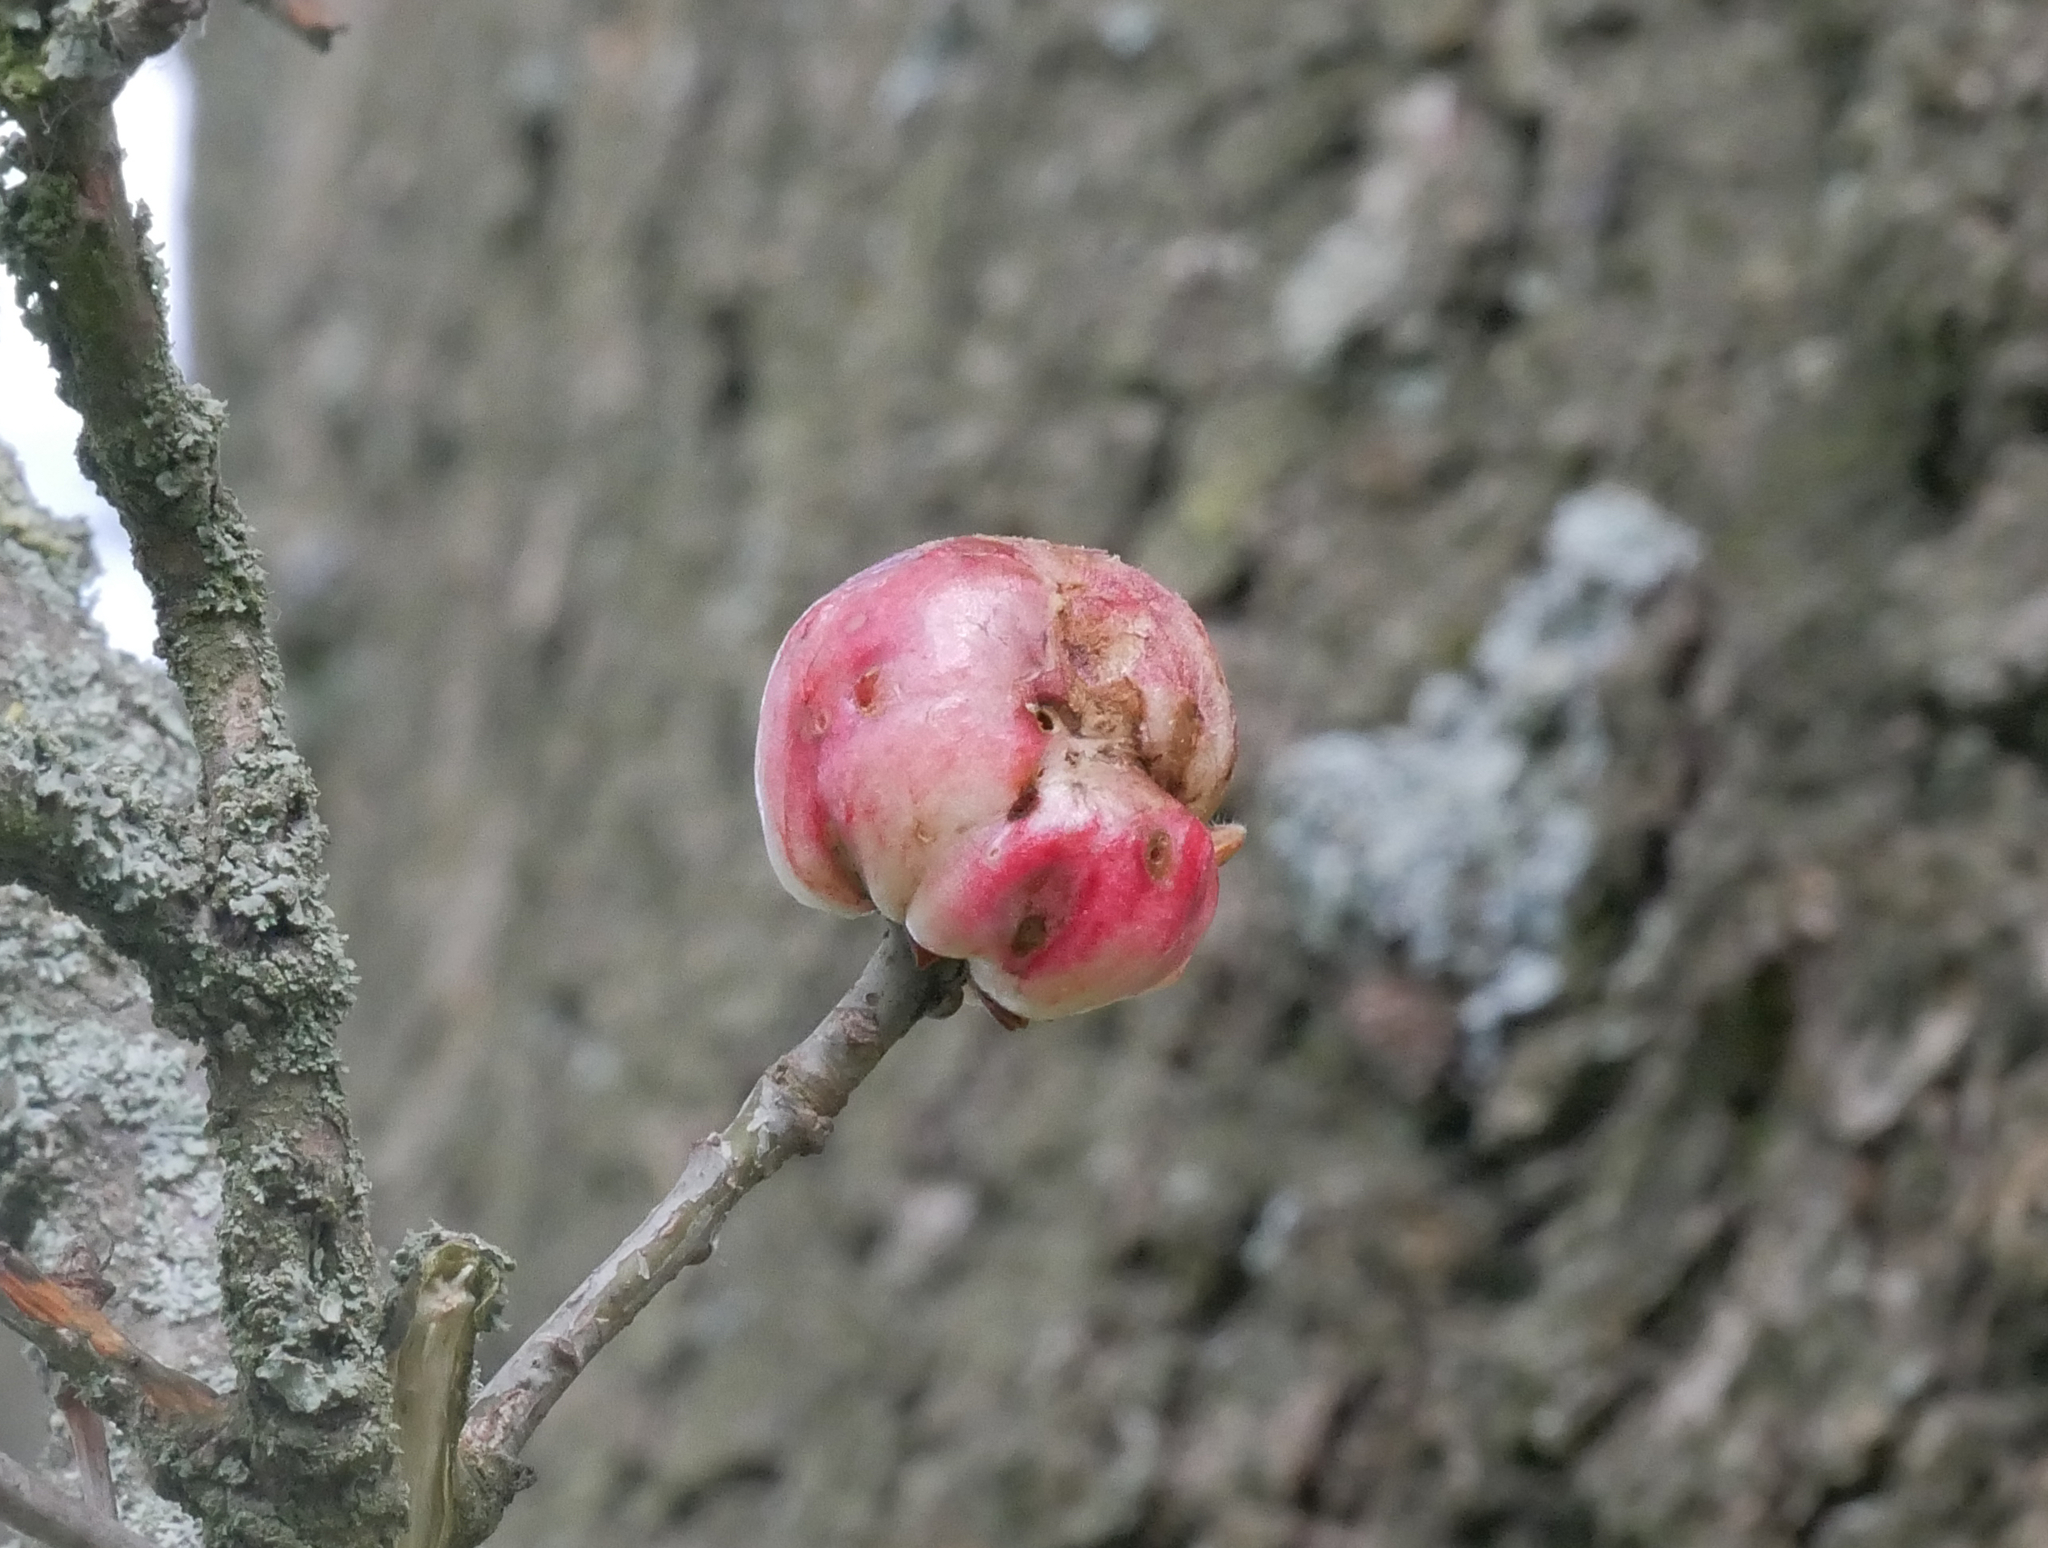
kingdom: Animalia
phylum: Arthropoda
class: Insecta
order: Hymenoptera
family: Cynipidae
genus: Biorhiza
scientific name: Biorhiza pallida
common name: Oak apple
